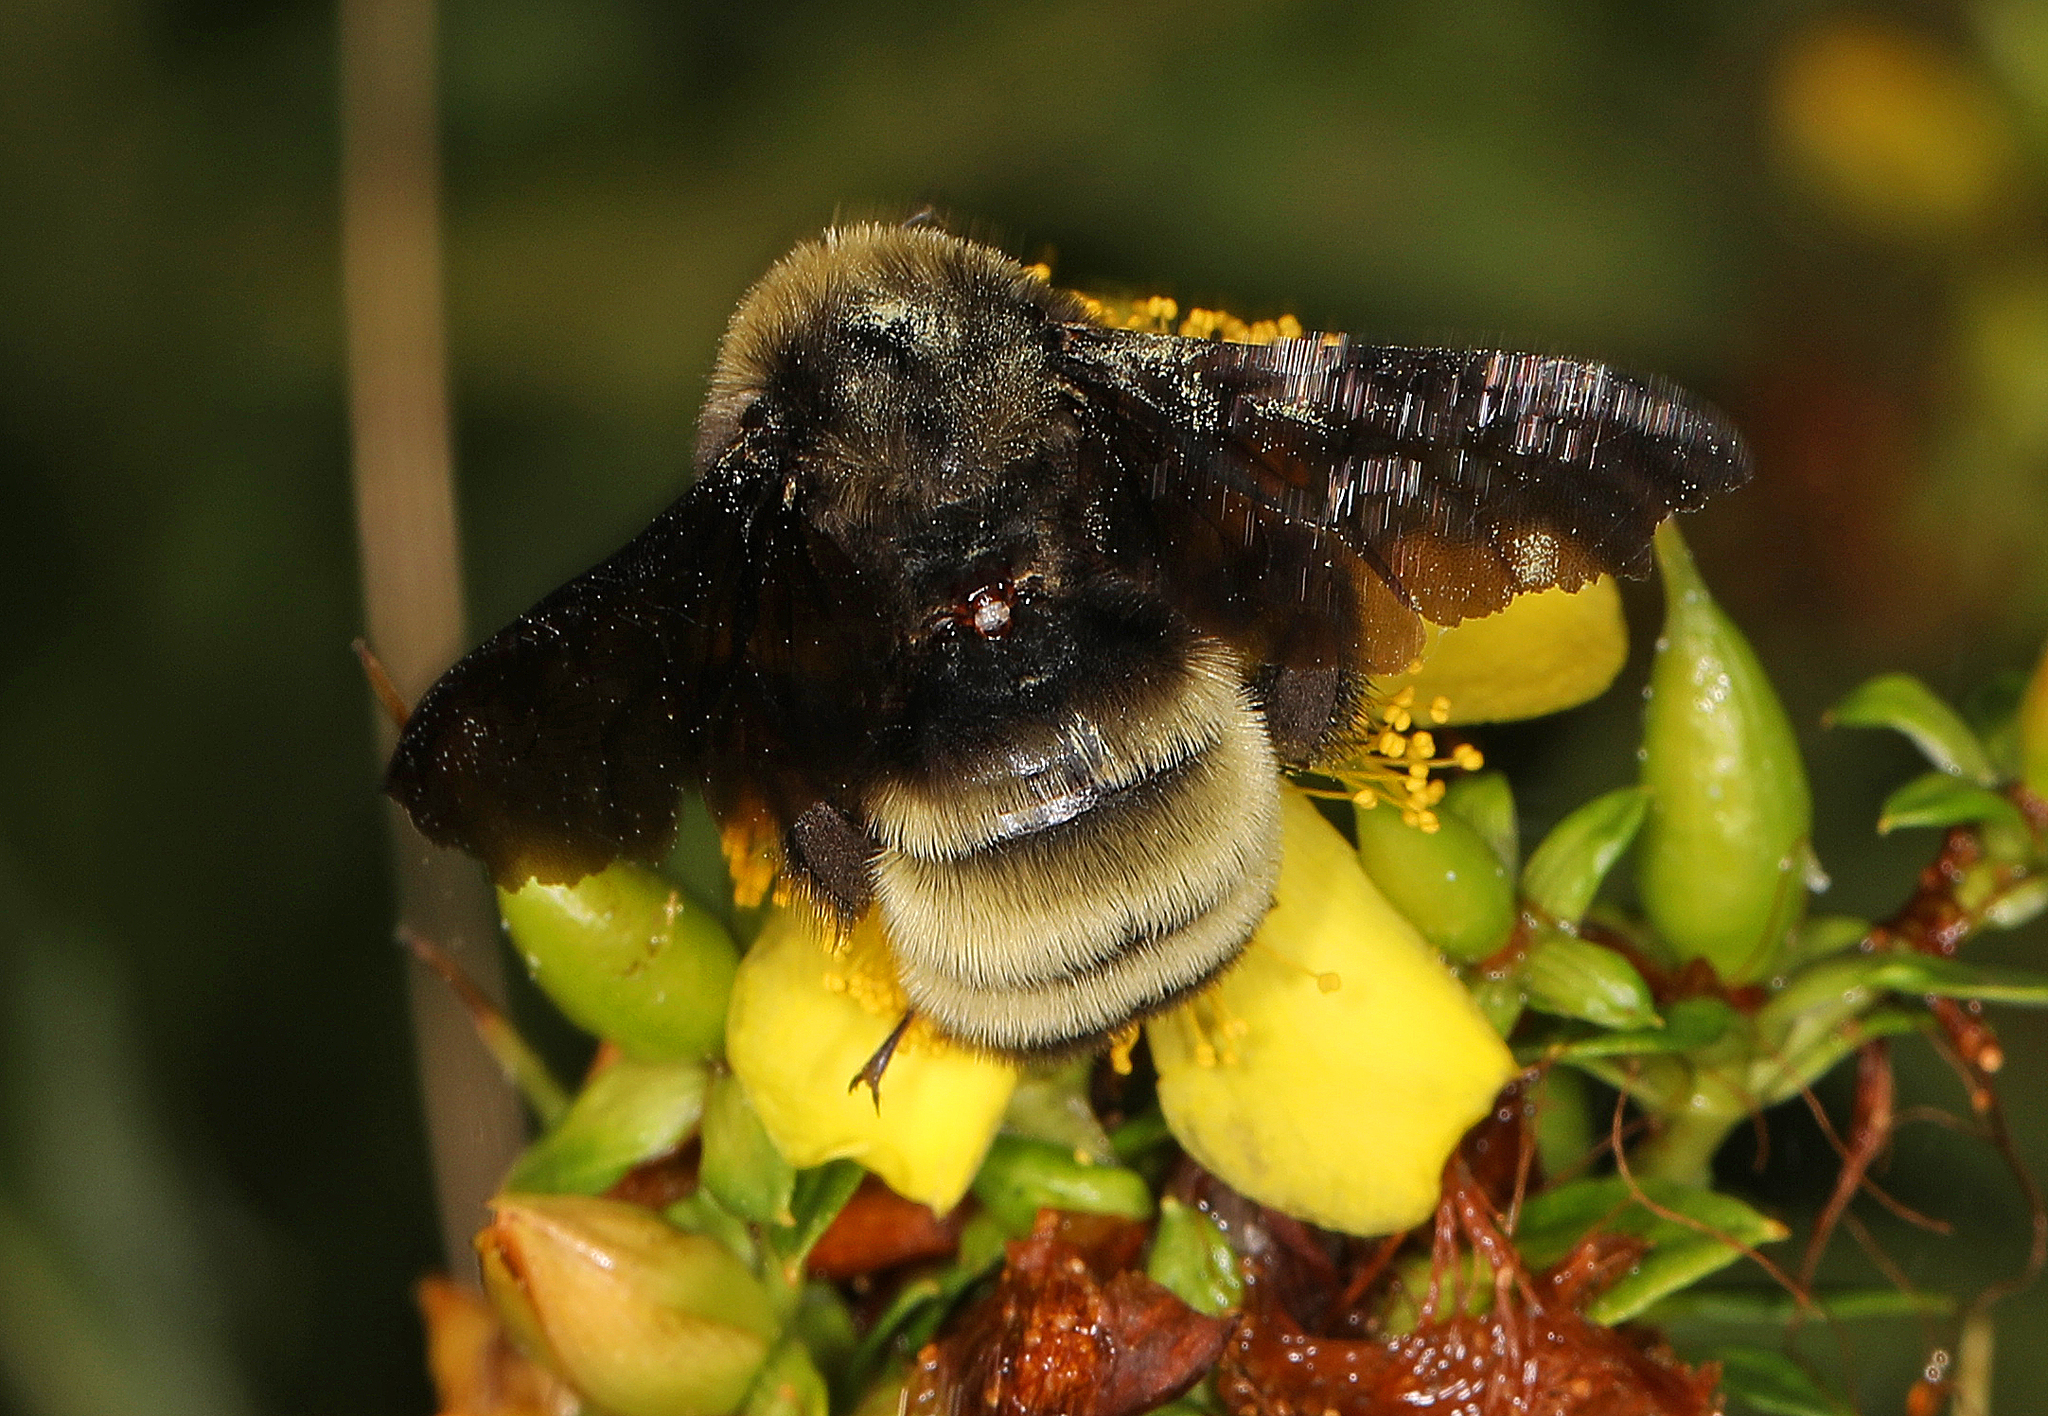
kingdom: Animalia
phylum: Arthropoda
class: Insecta
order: Hymenoptera
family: Apidae
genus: Bombus
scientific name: Bombus pensylvanicus
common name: Bumble bee
